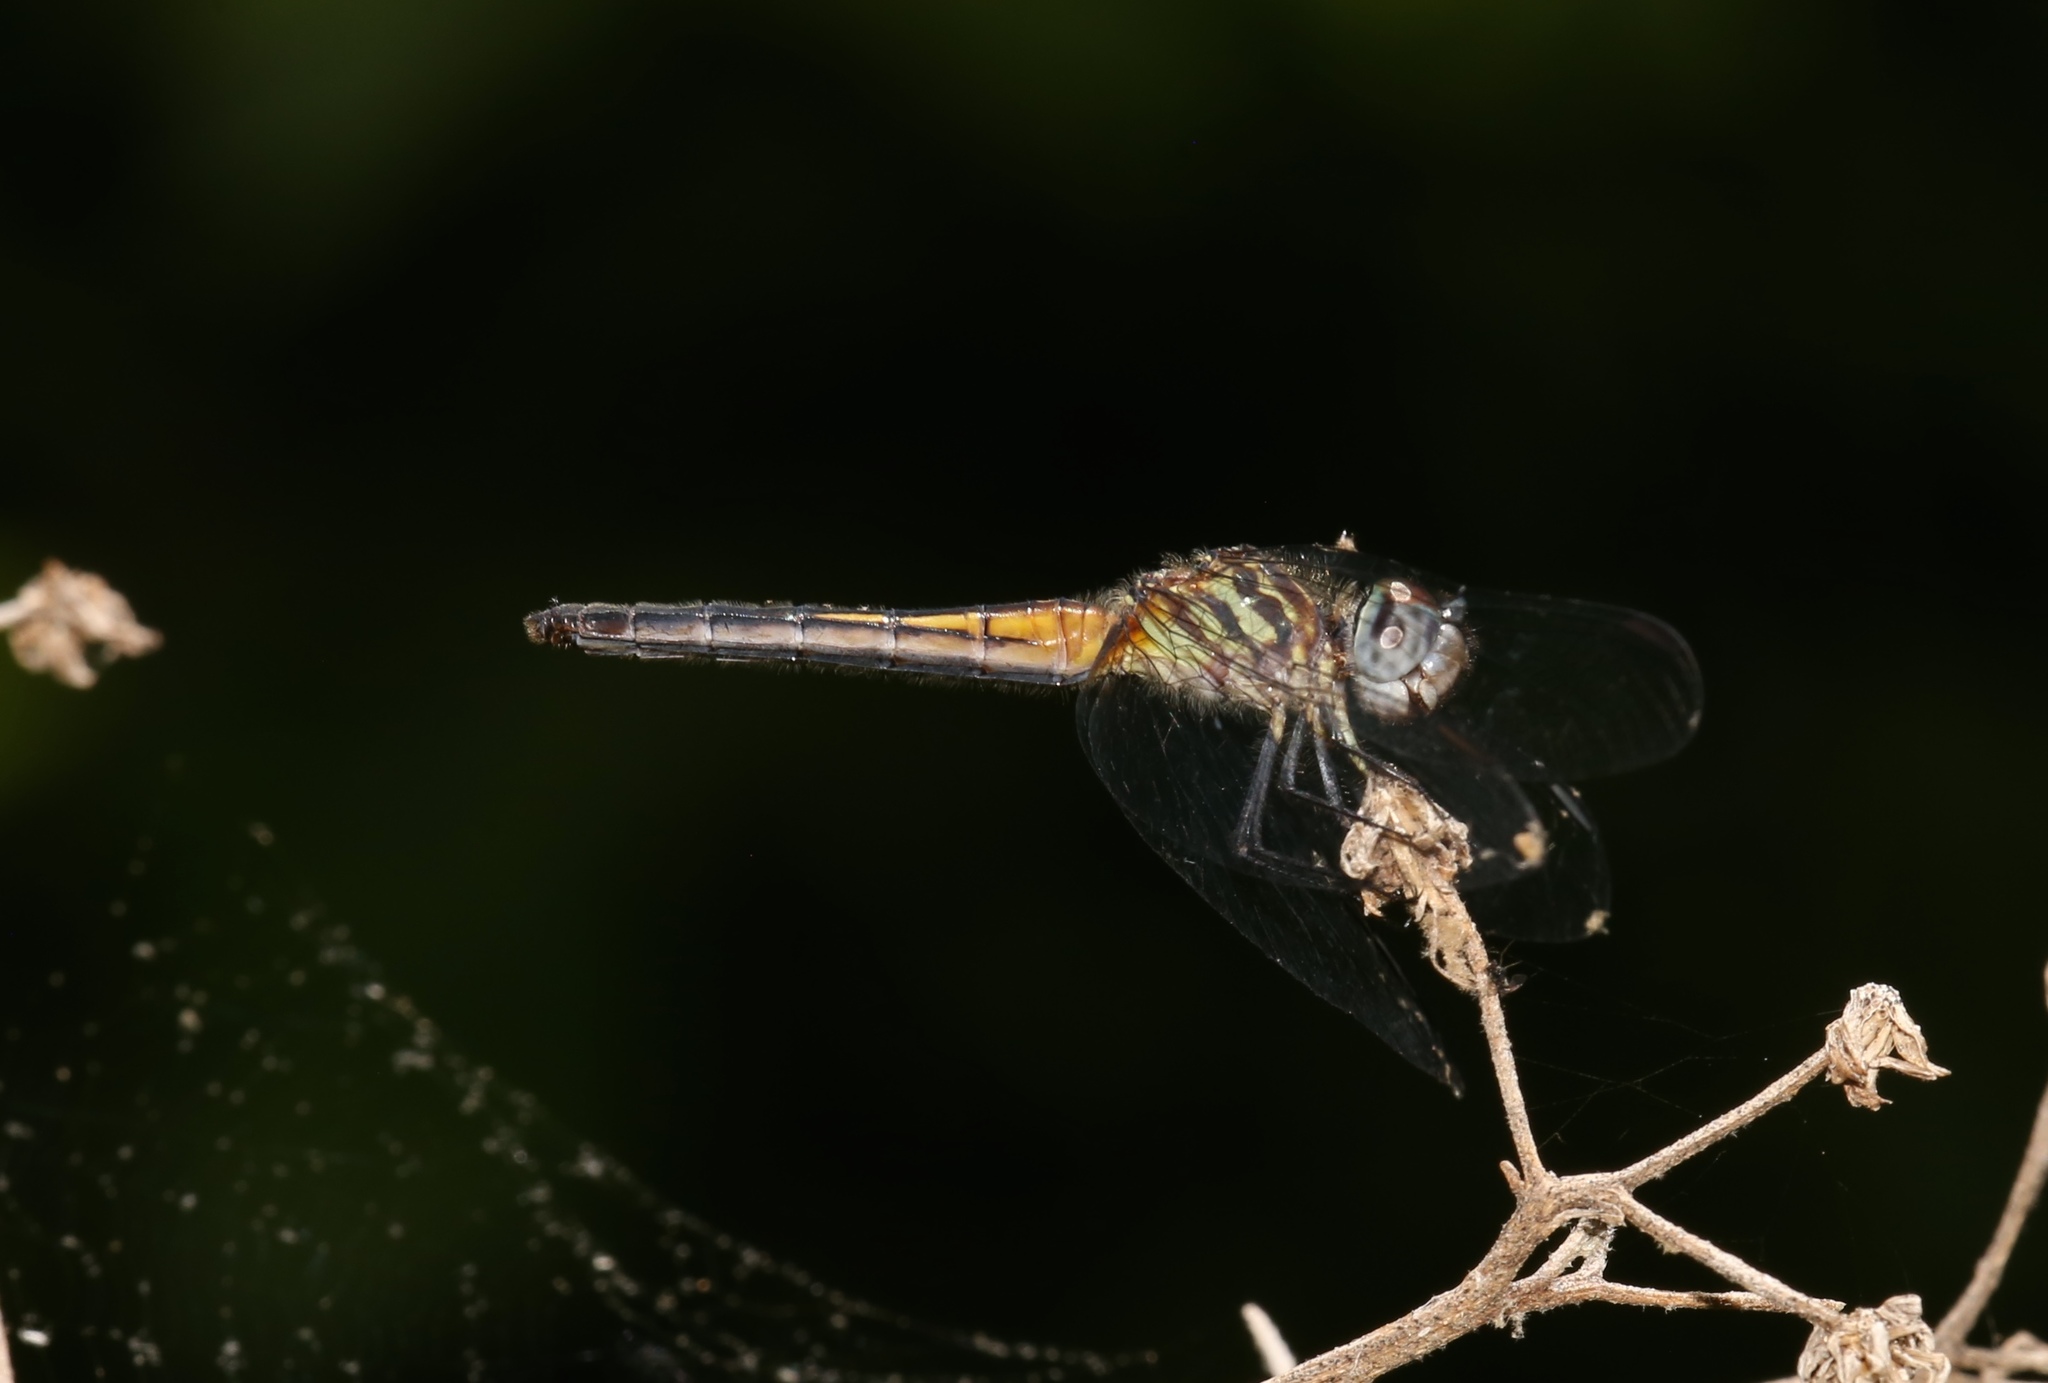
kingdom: Animalia
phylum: Arthropoda
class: Insecta
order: Odonata
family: Libellulidae
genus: Pachydiplax
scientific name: Pachydiplax longipennis
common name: Blue dasher
